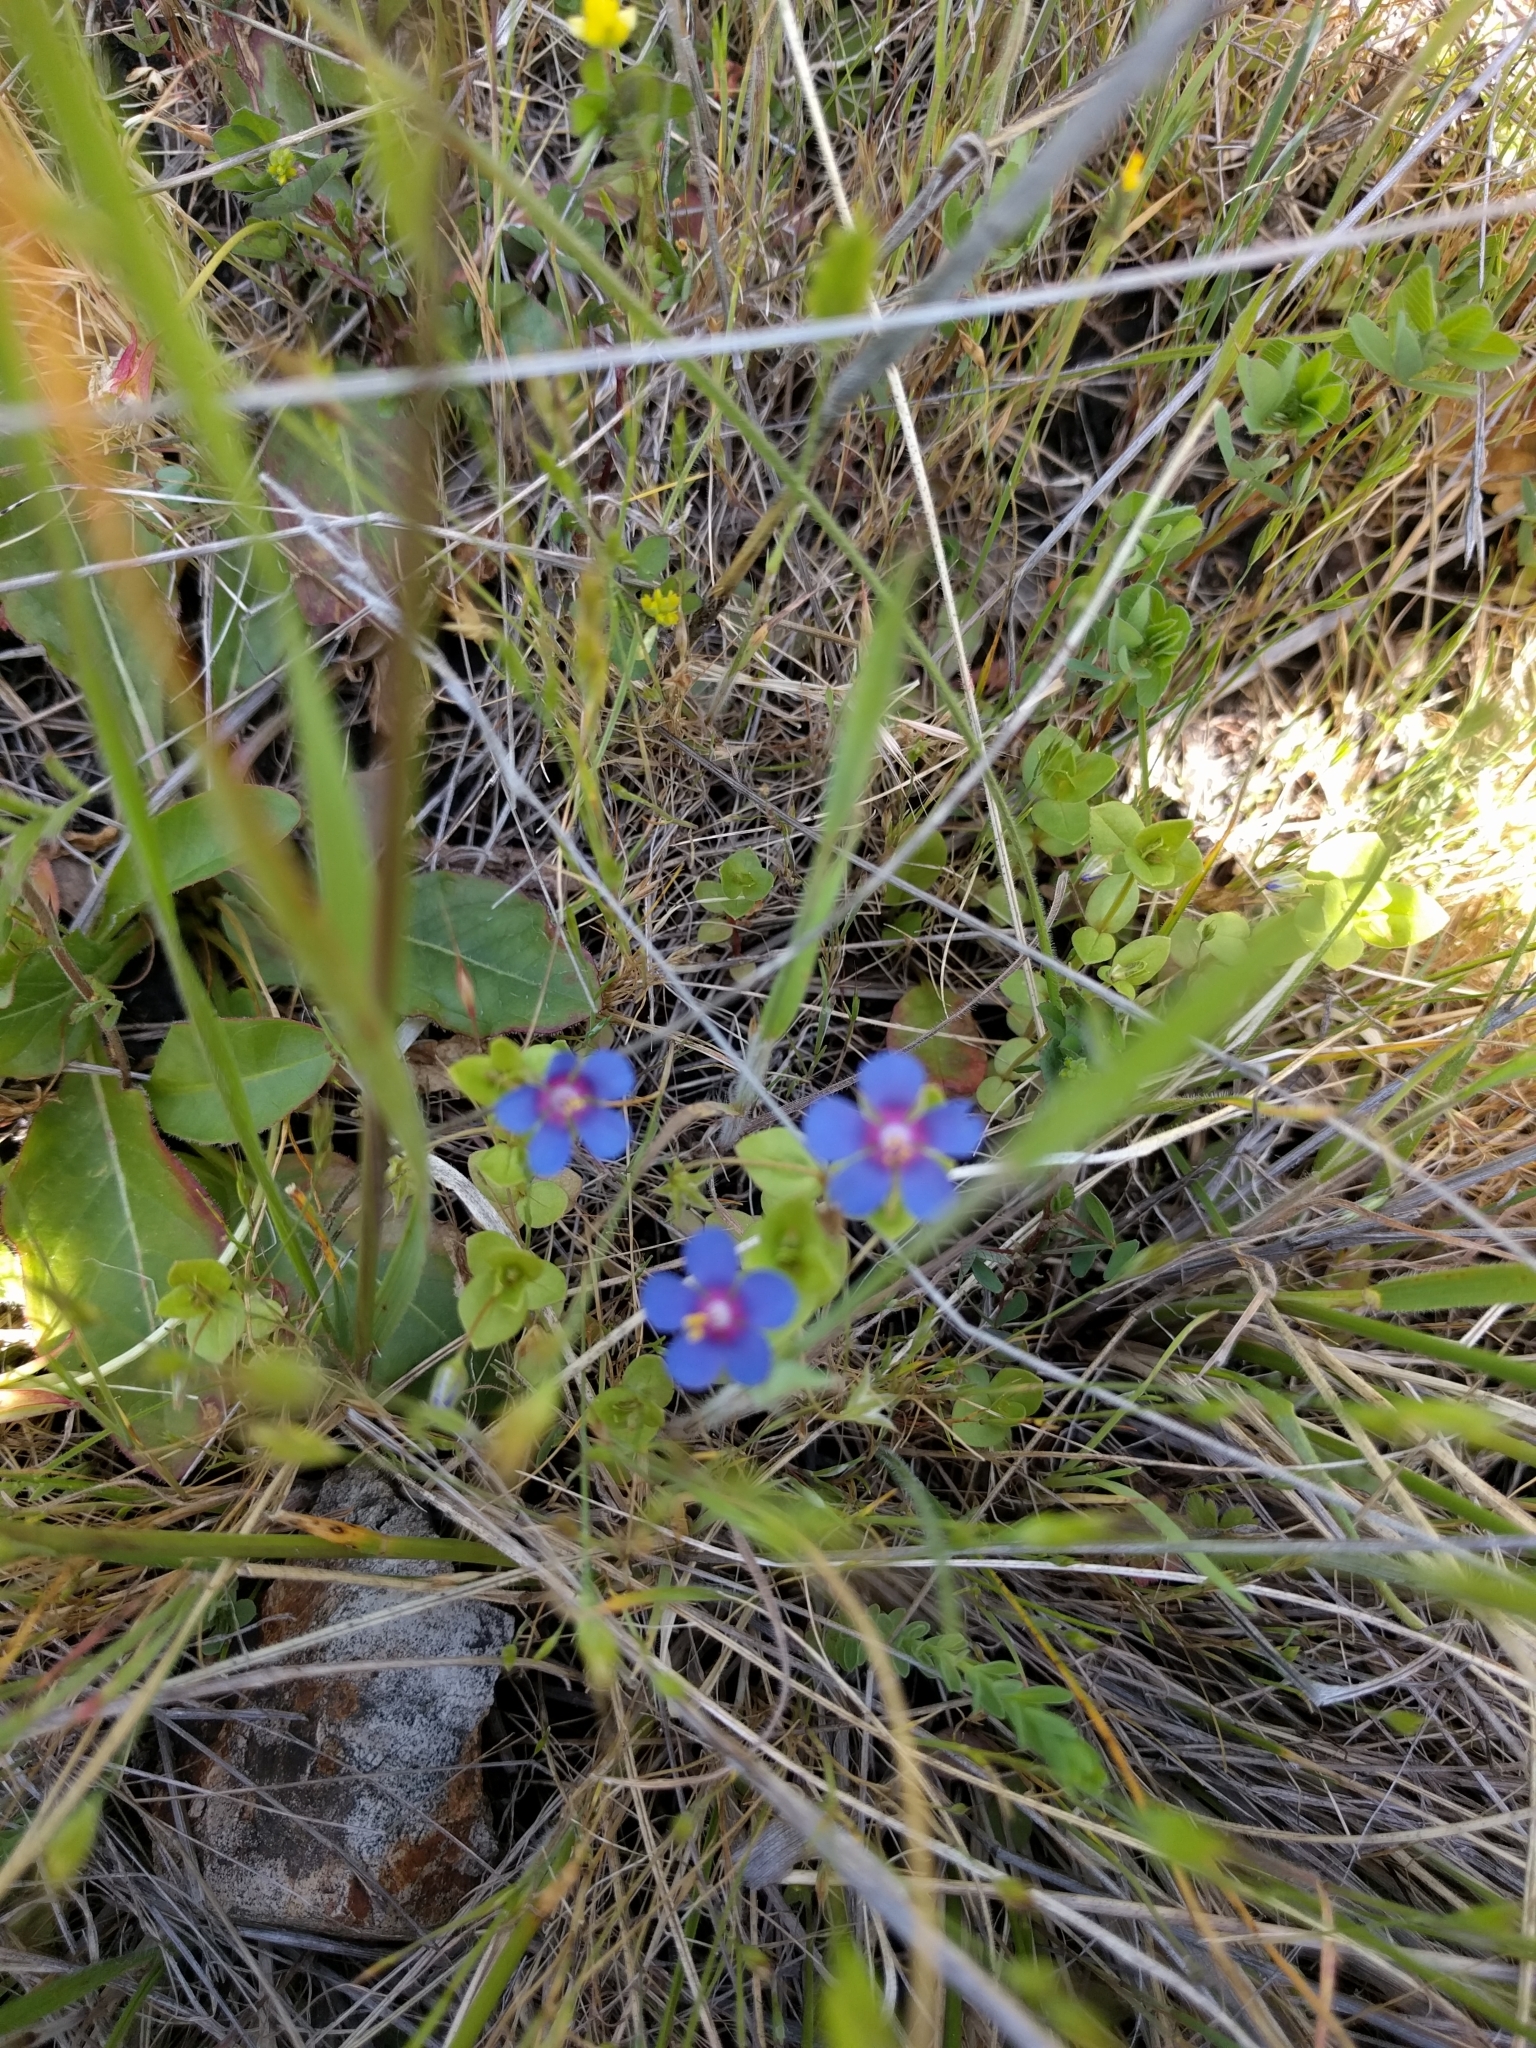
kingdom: Plantae
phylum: Tracheophyta
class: Magnoliopsida
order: Ericales
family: Primulaceae
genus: Lysimachia
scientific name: Lysimachia arvensis
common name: Scarlet pimpernel
